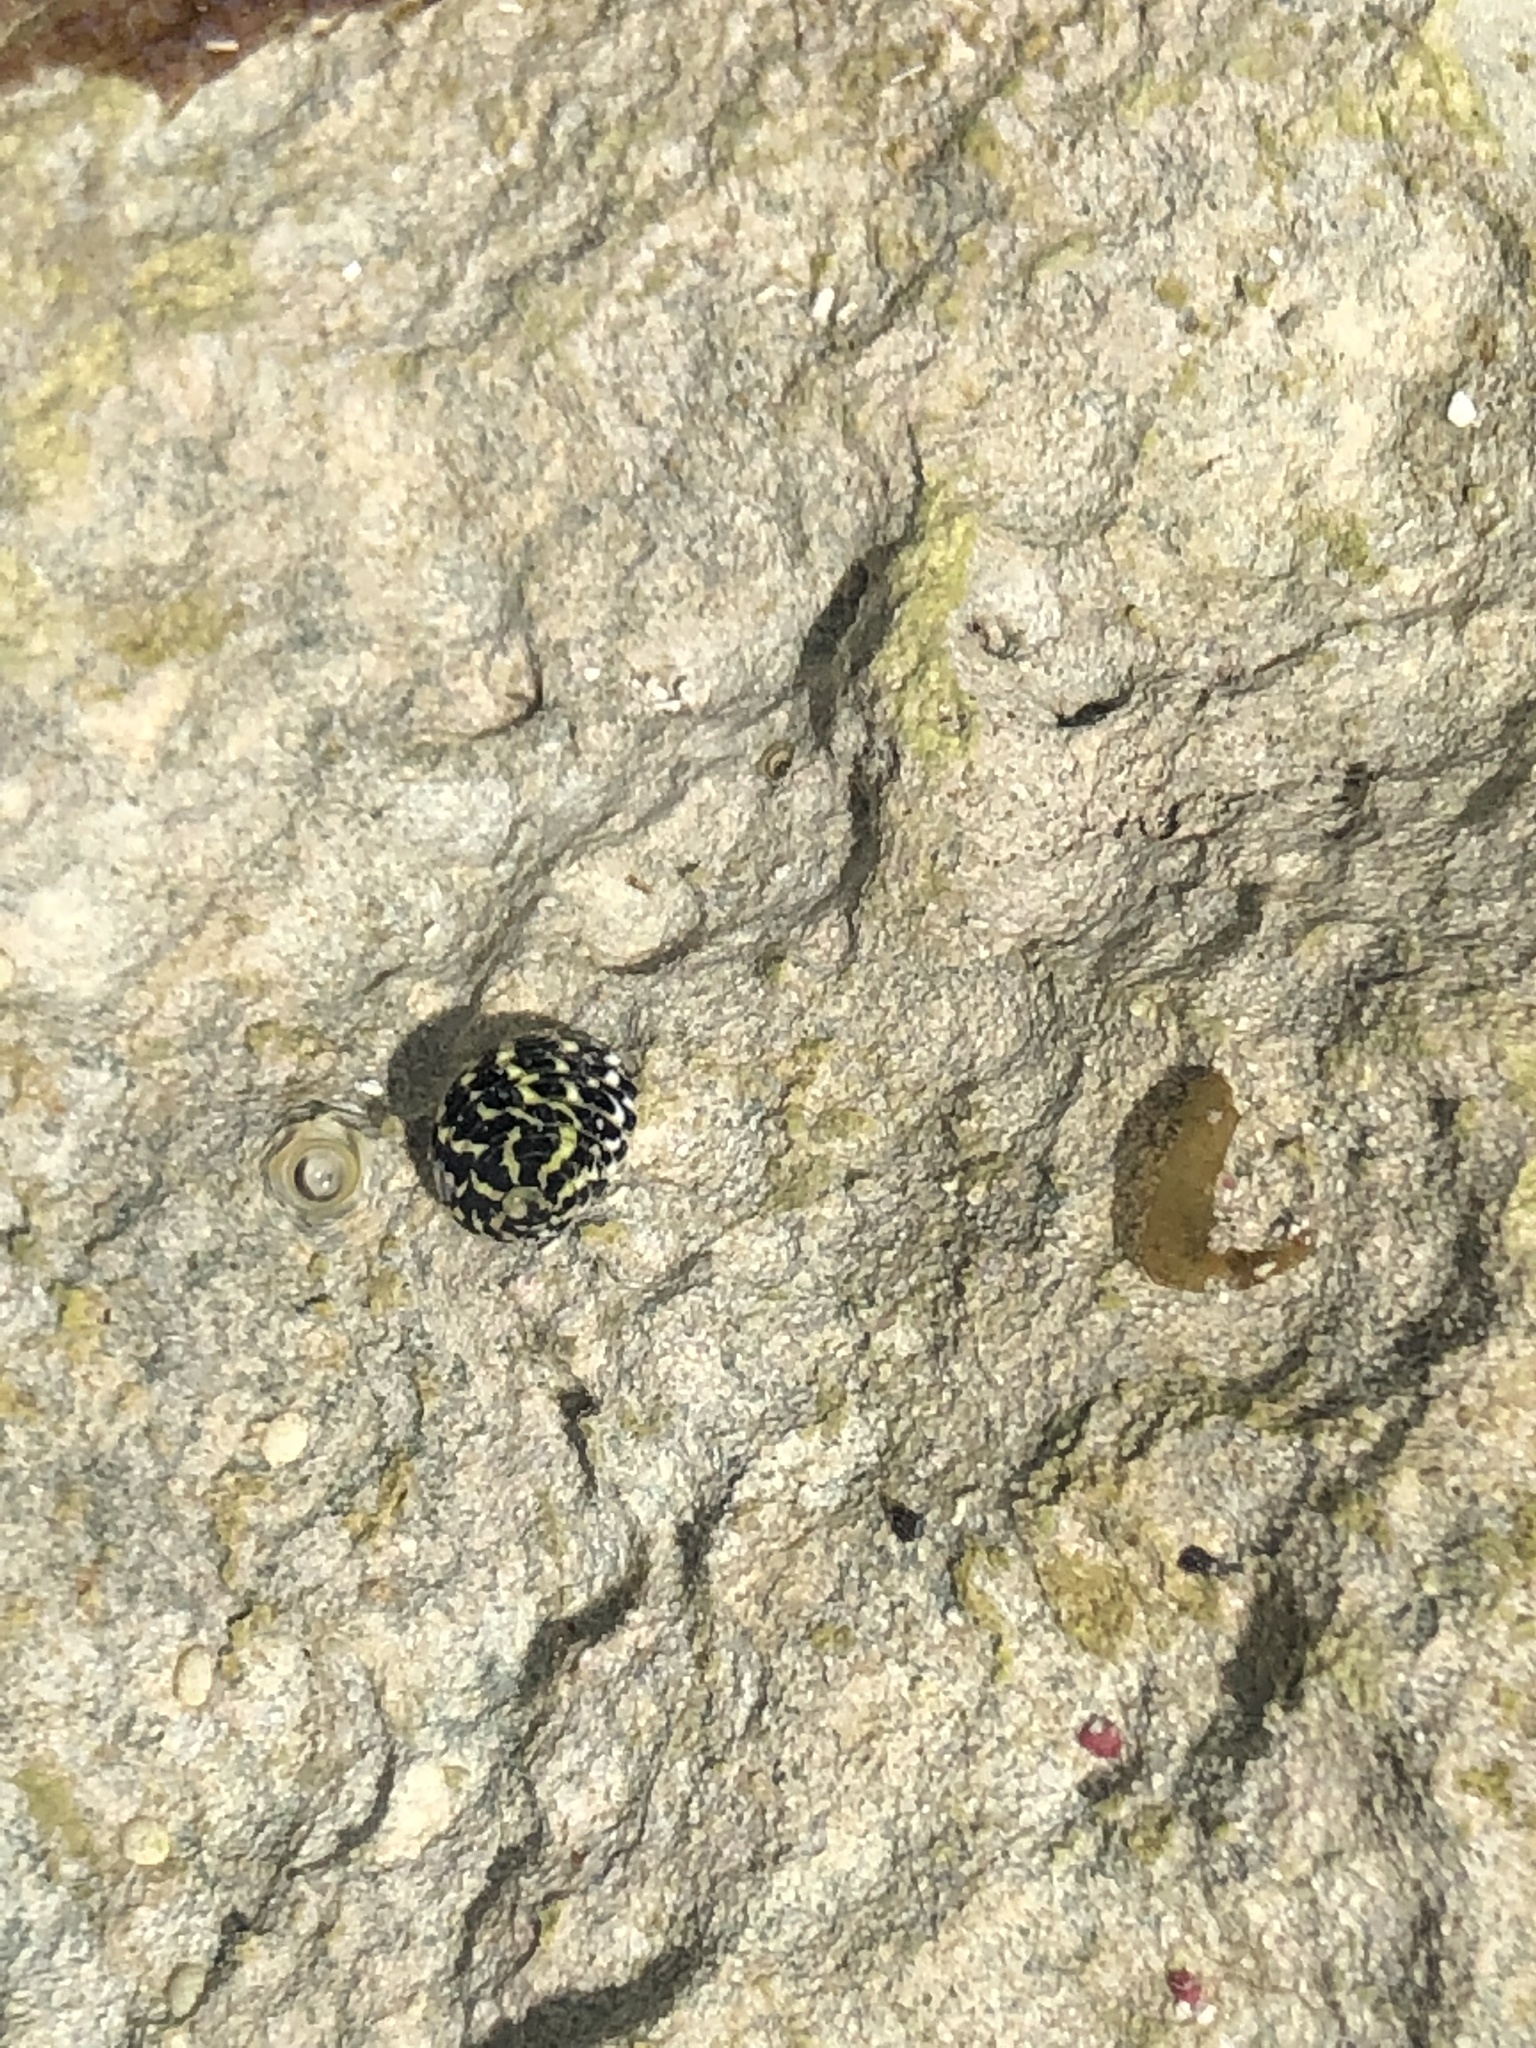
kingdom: Animalia
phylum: Mollusca
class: Gastropoda
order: Cycloneritida
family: Neritidae
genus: Nerita
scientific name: Nerita tessellata
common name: Checkered nerite
